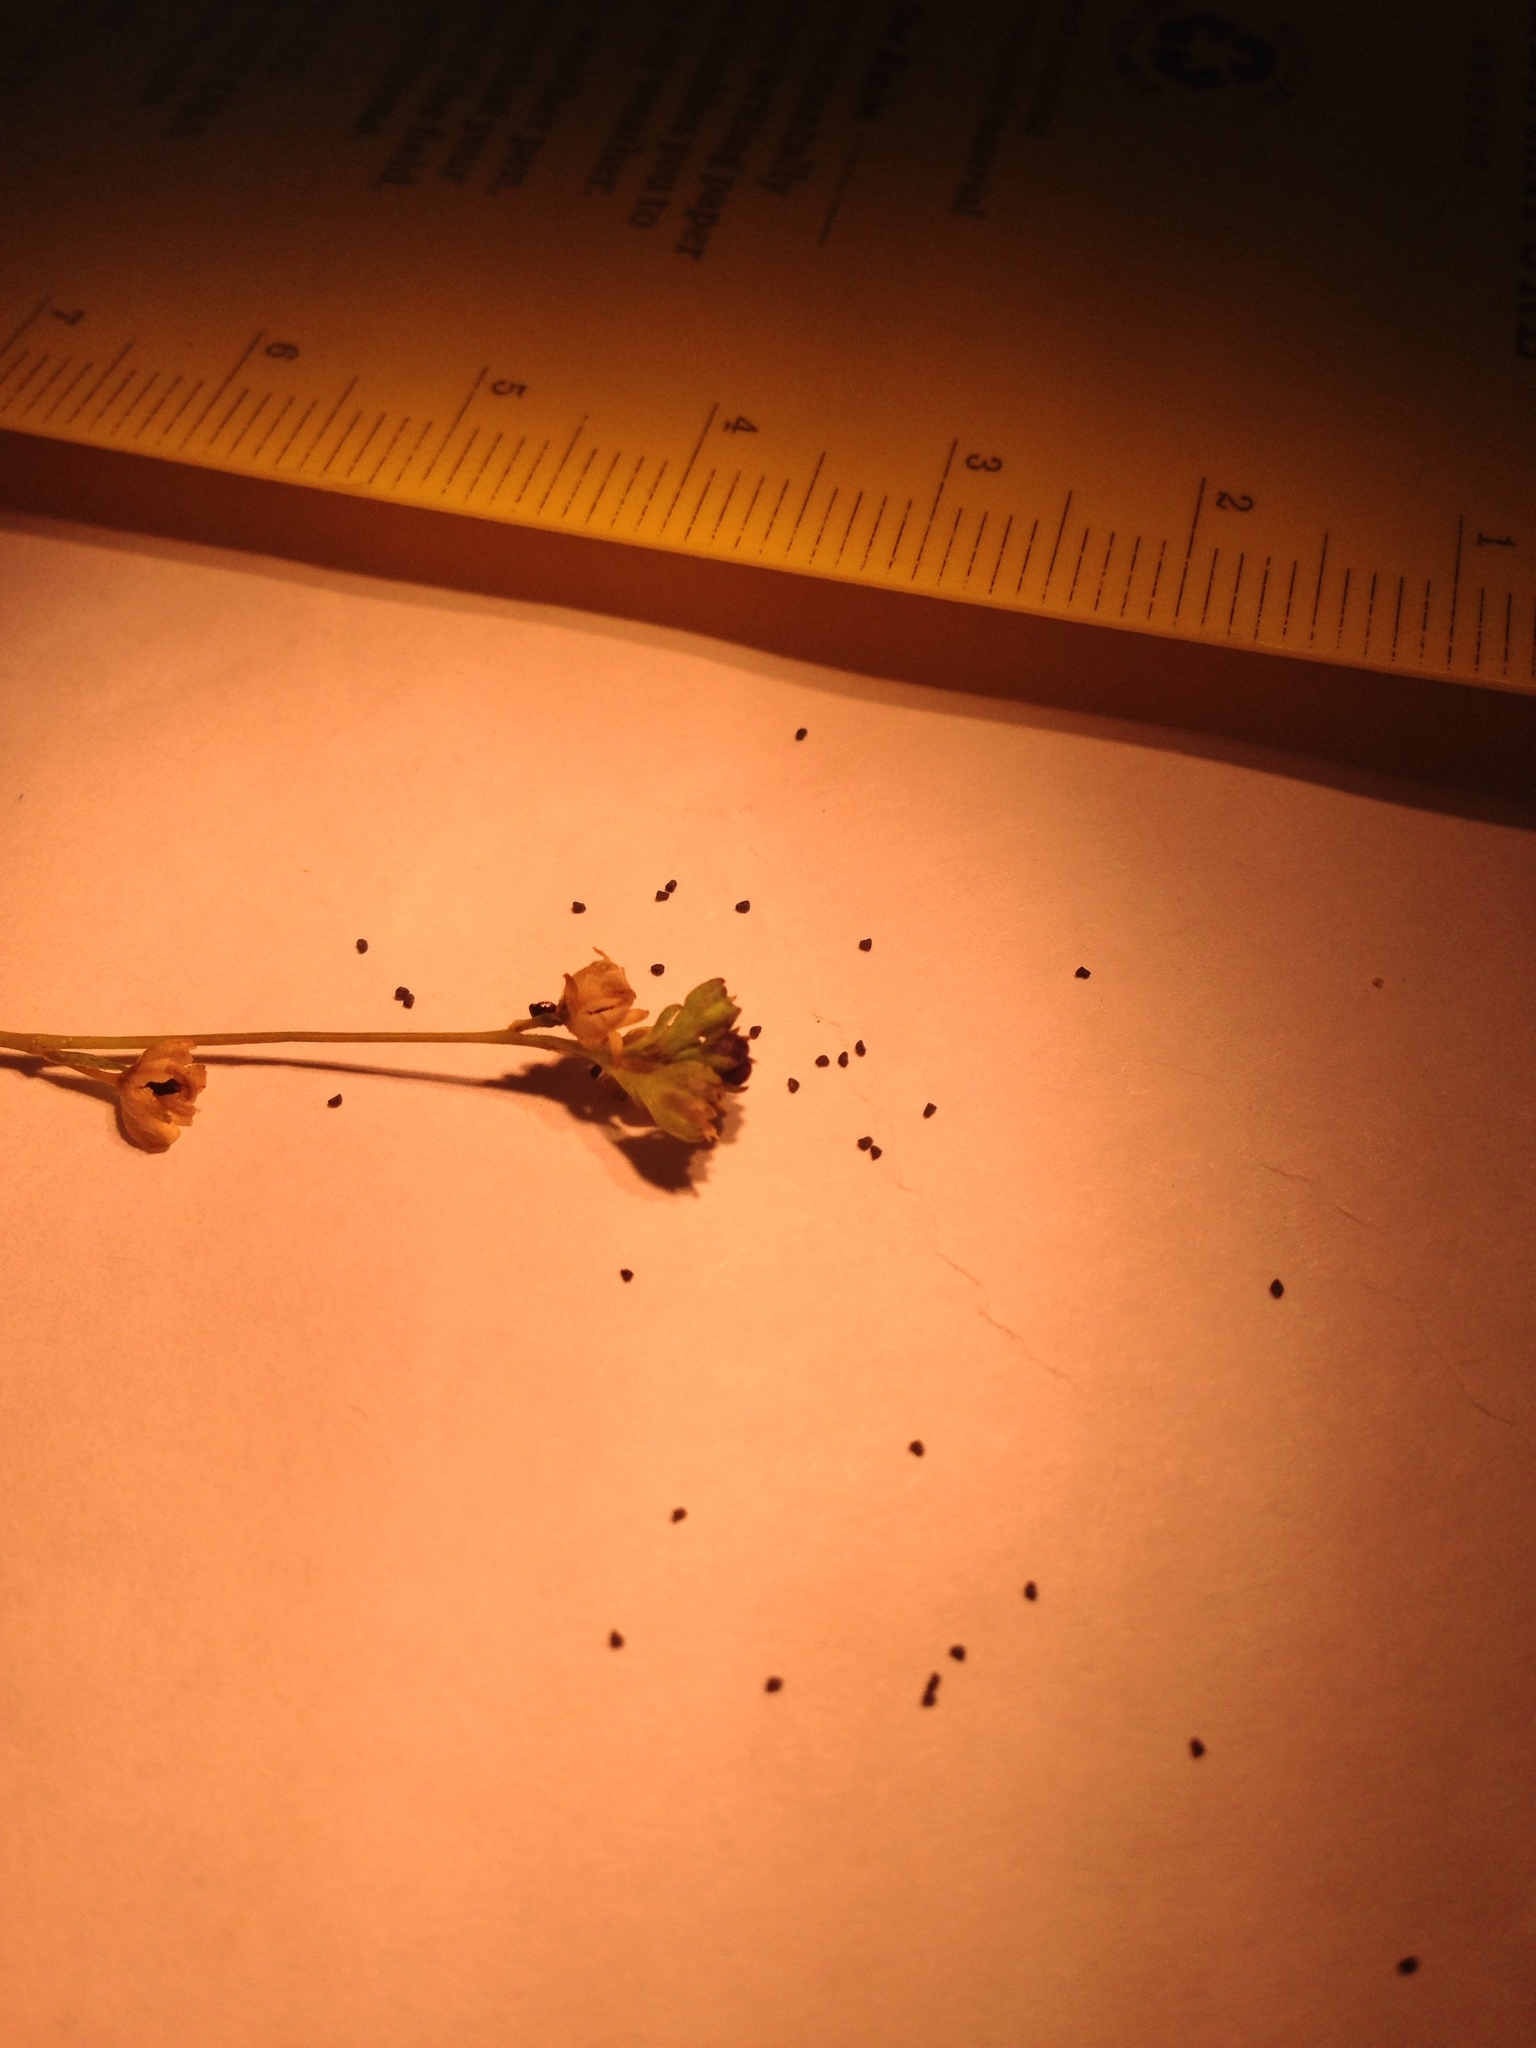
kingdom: Plantae
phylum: Tracheophyta
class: Magnoliopsida
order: Asterales
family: Asteraceae
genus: Amblyopappus
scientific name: Amblyopappus pusillus
